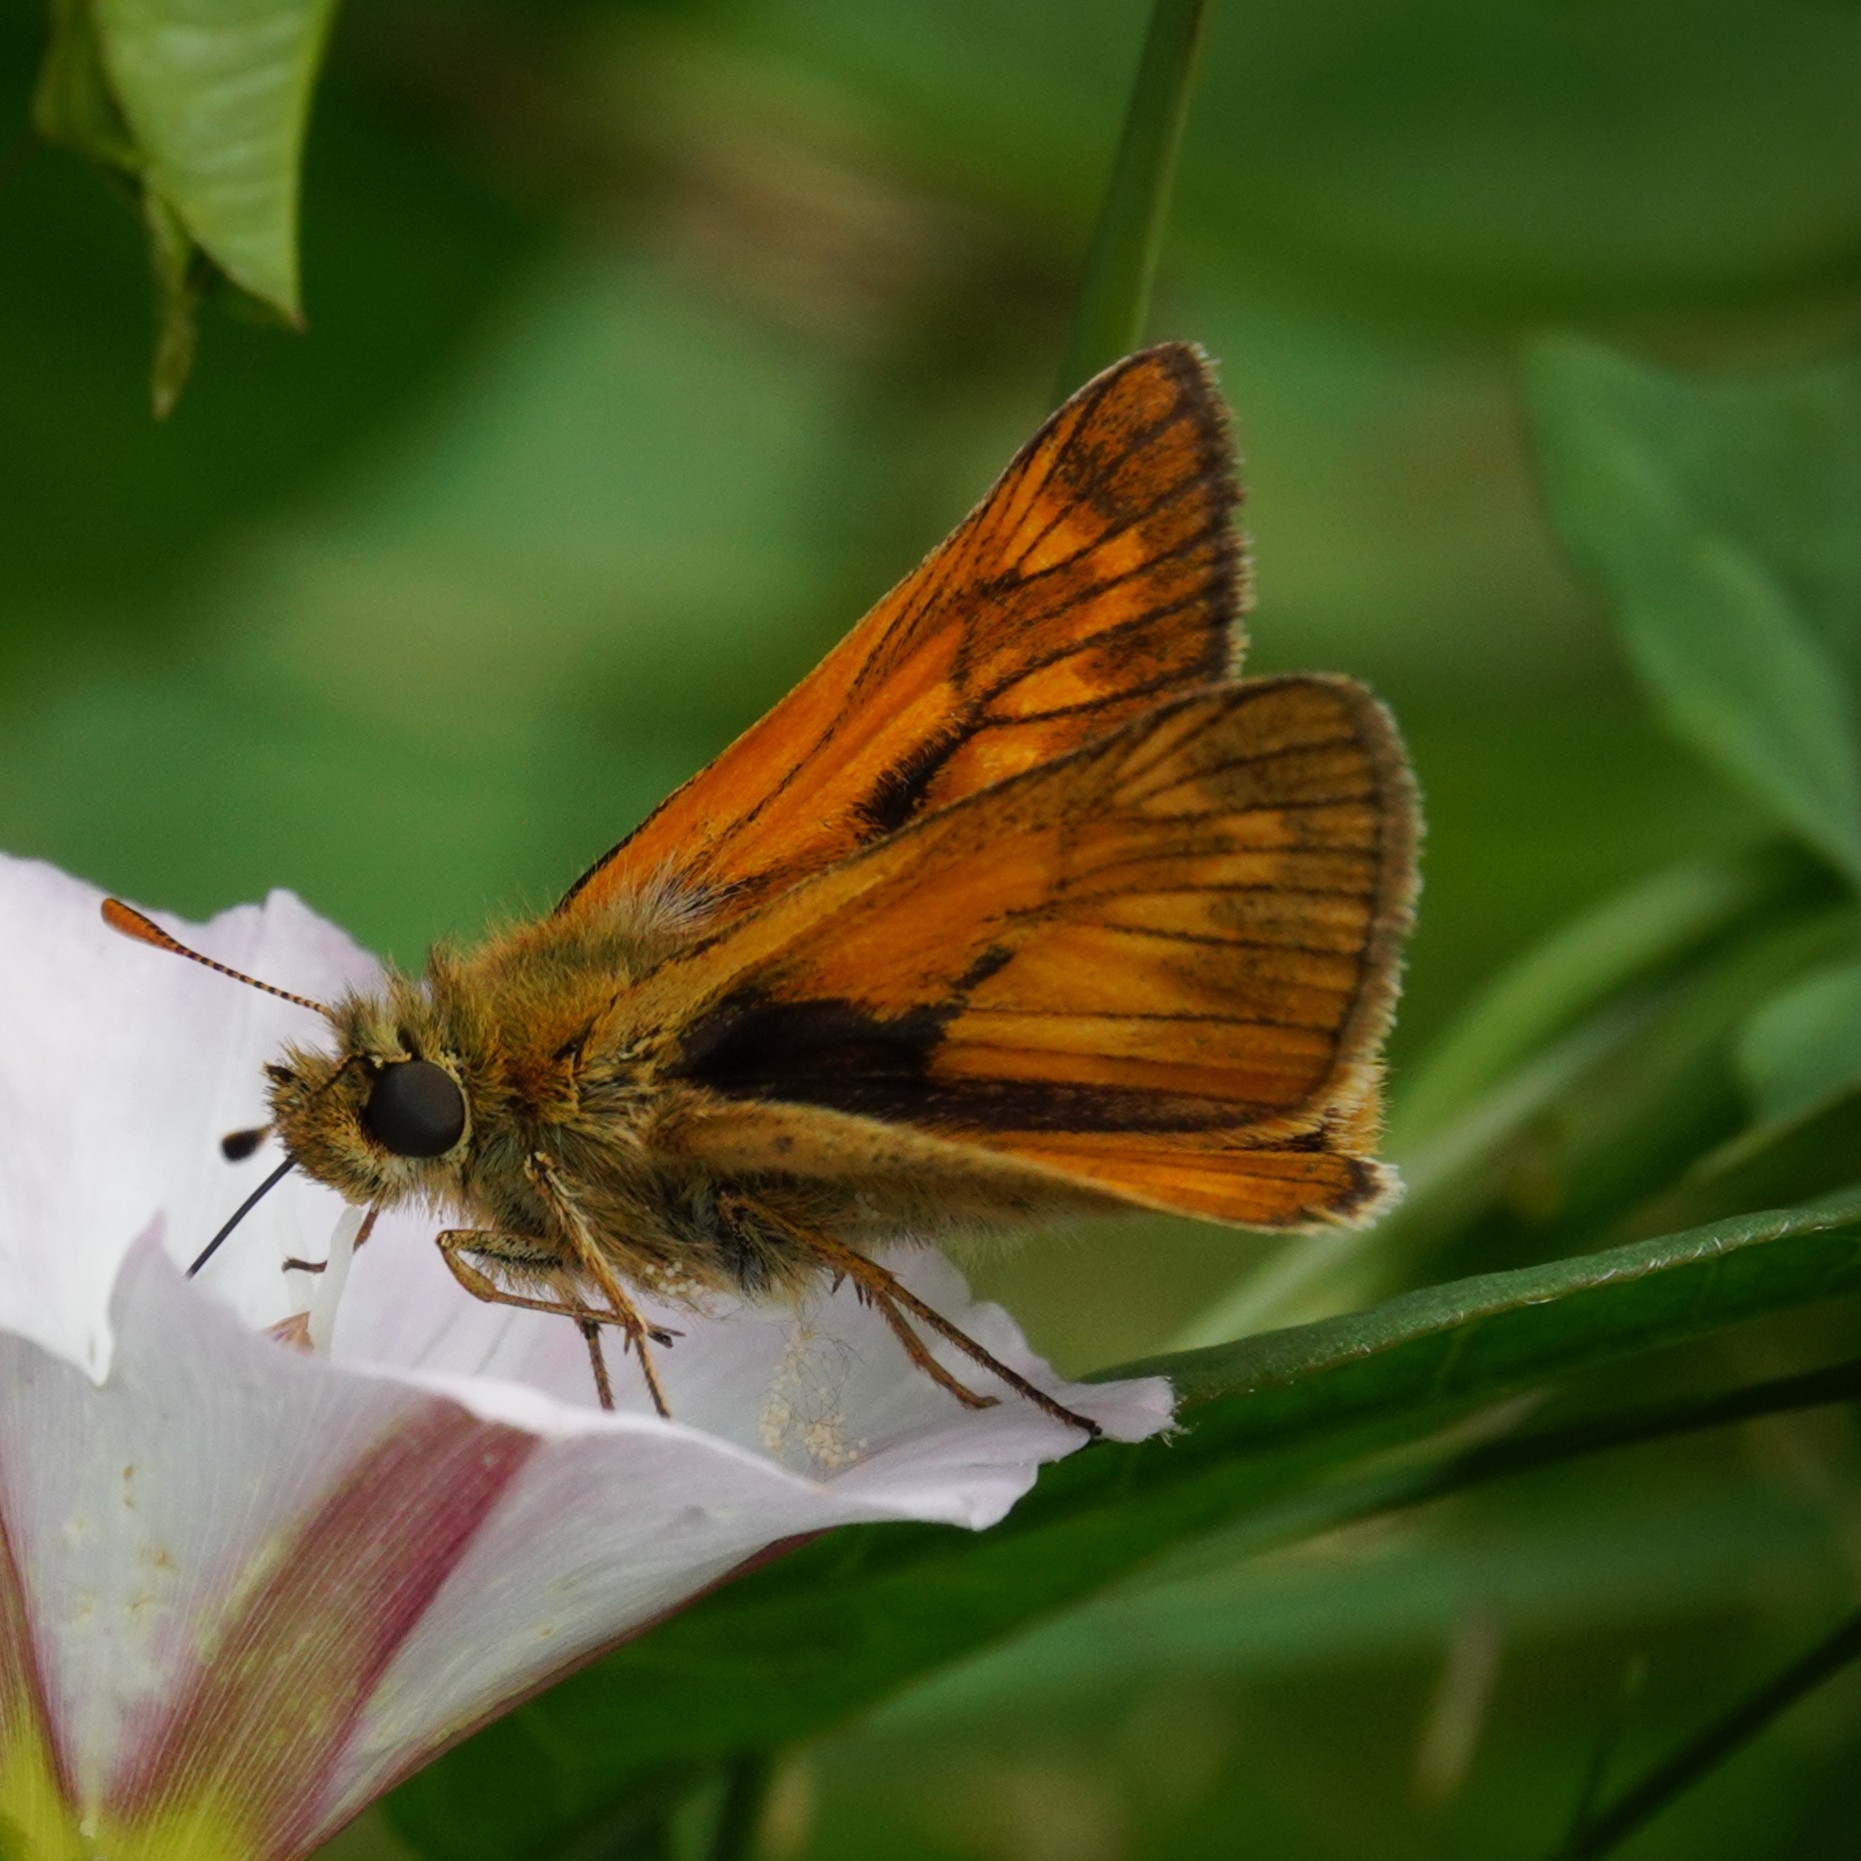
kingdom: Animalia
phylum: Arthropoda
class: Insecta
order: Lepidoptera
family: Hesperiidae
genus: Ochlodes
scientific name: Ochlodes venata
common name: Large skipper
